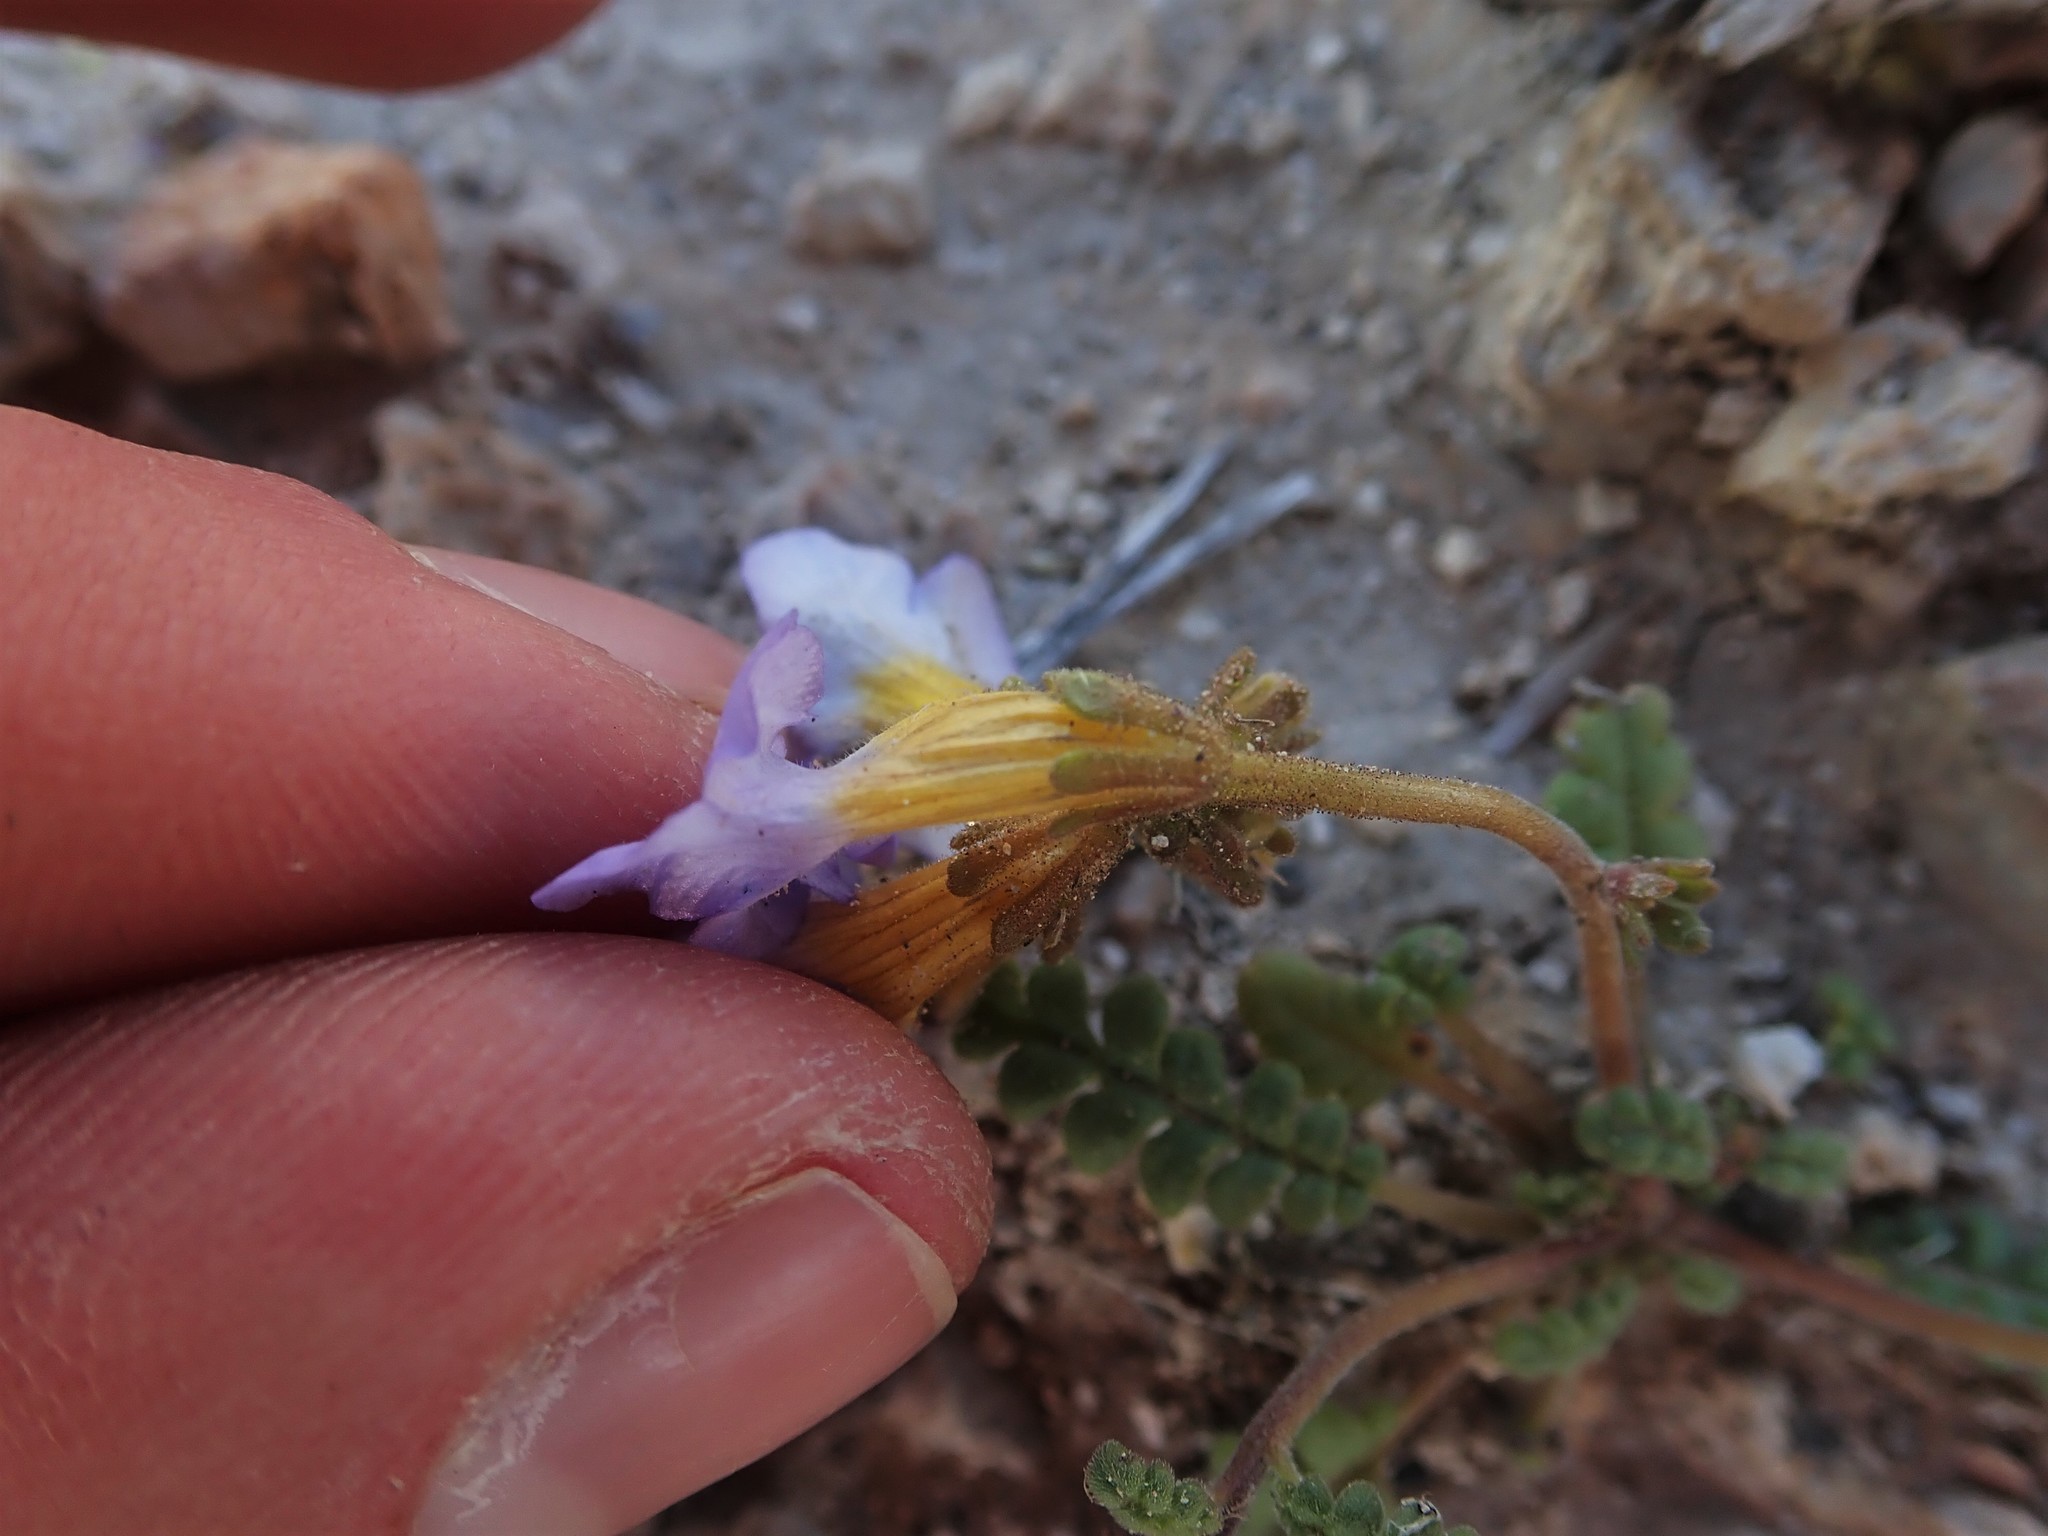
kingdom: Plantae
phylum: Tracheophyta
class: Magnoliopsida
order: Boraginales
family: Hydrophyllaceae
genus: Phacelia
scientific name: Phacelia fremontii
